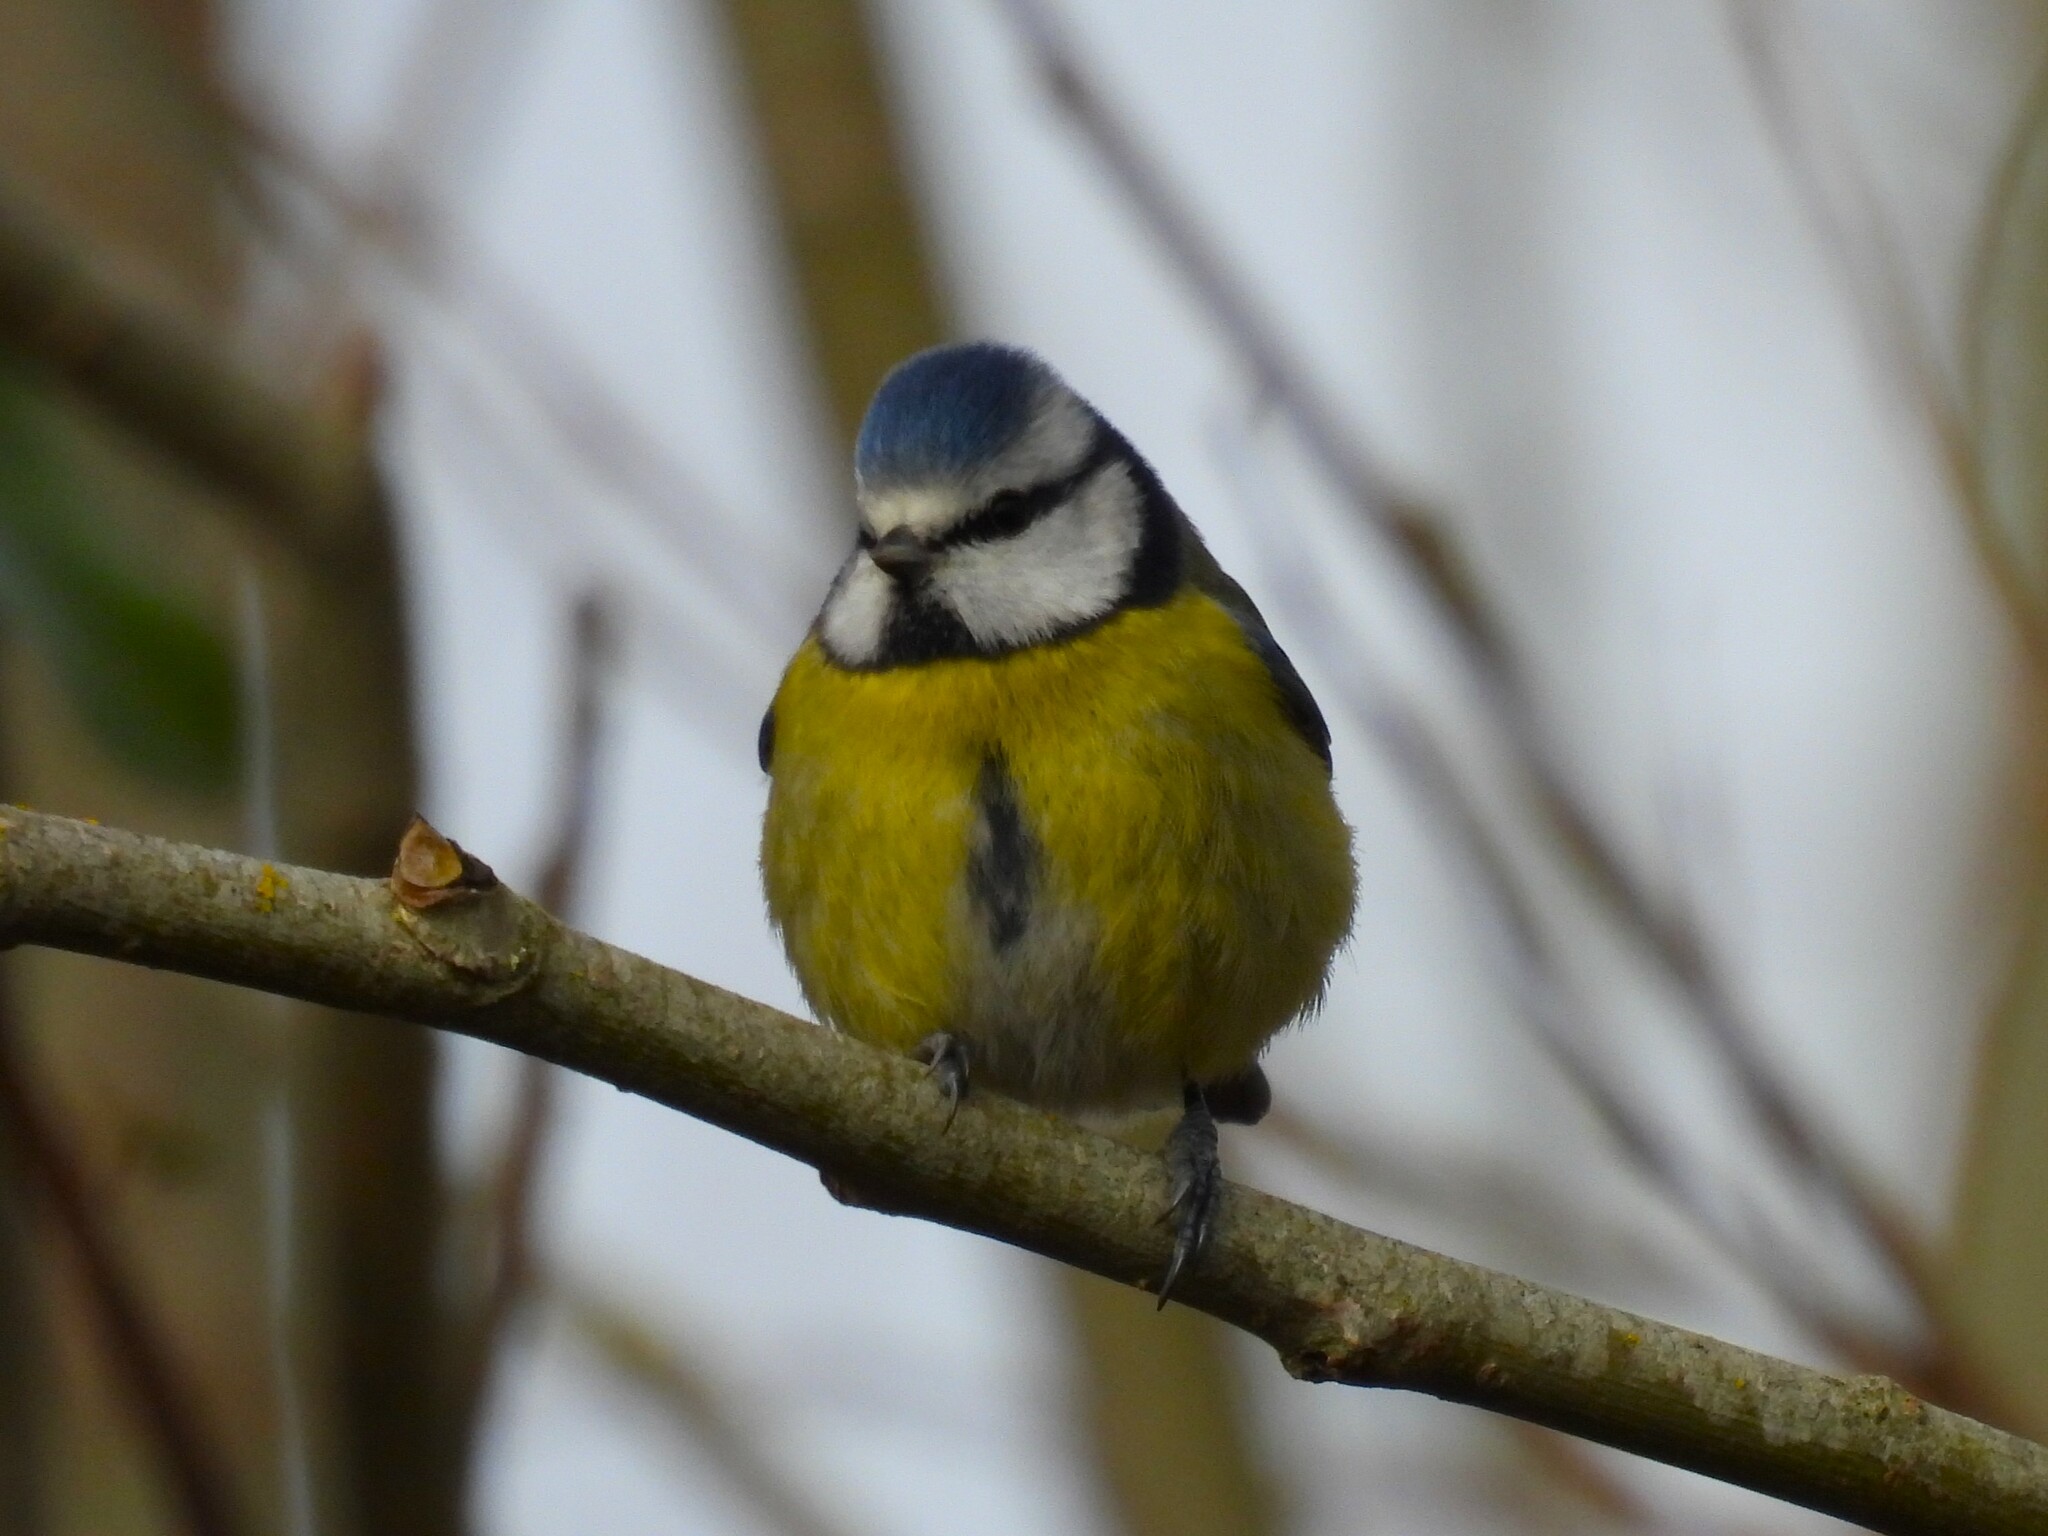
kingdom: Animalia
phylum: Chordata
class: Aves
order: Passeriformes
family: Paridae
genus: Cyanistes
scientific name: Cyanistes caeruleus
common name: Eurasian blue tit
